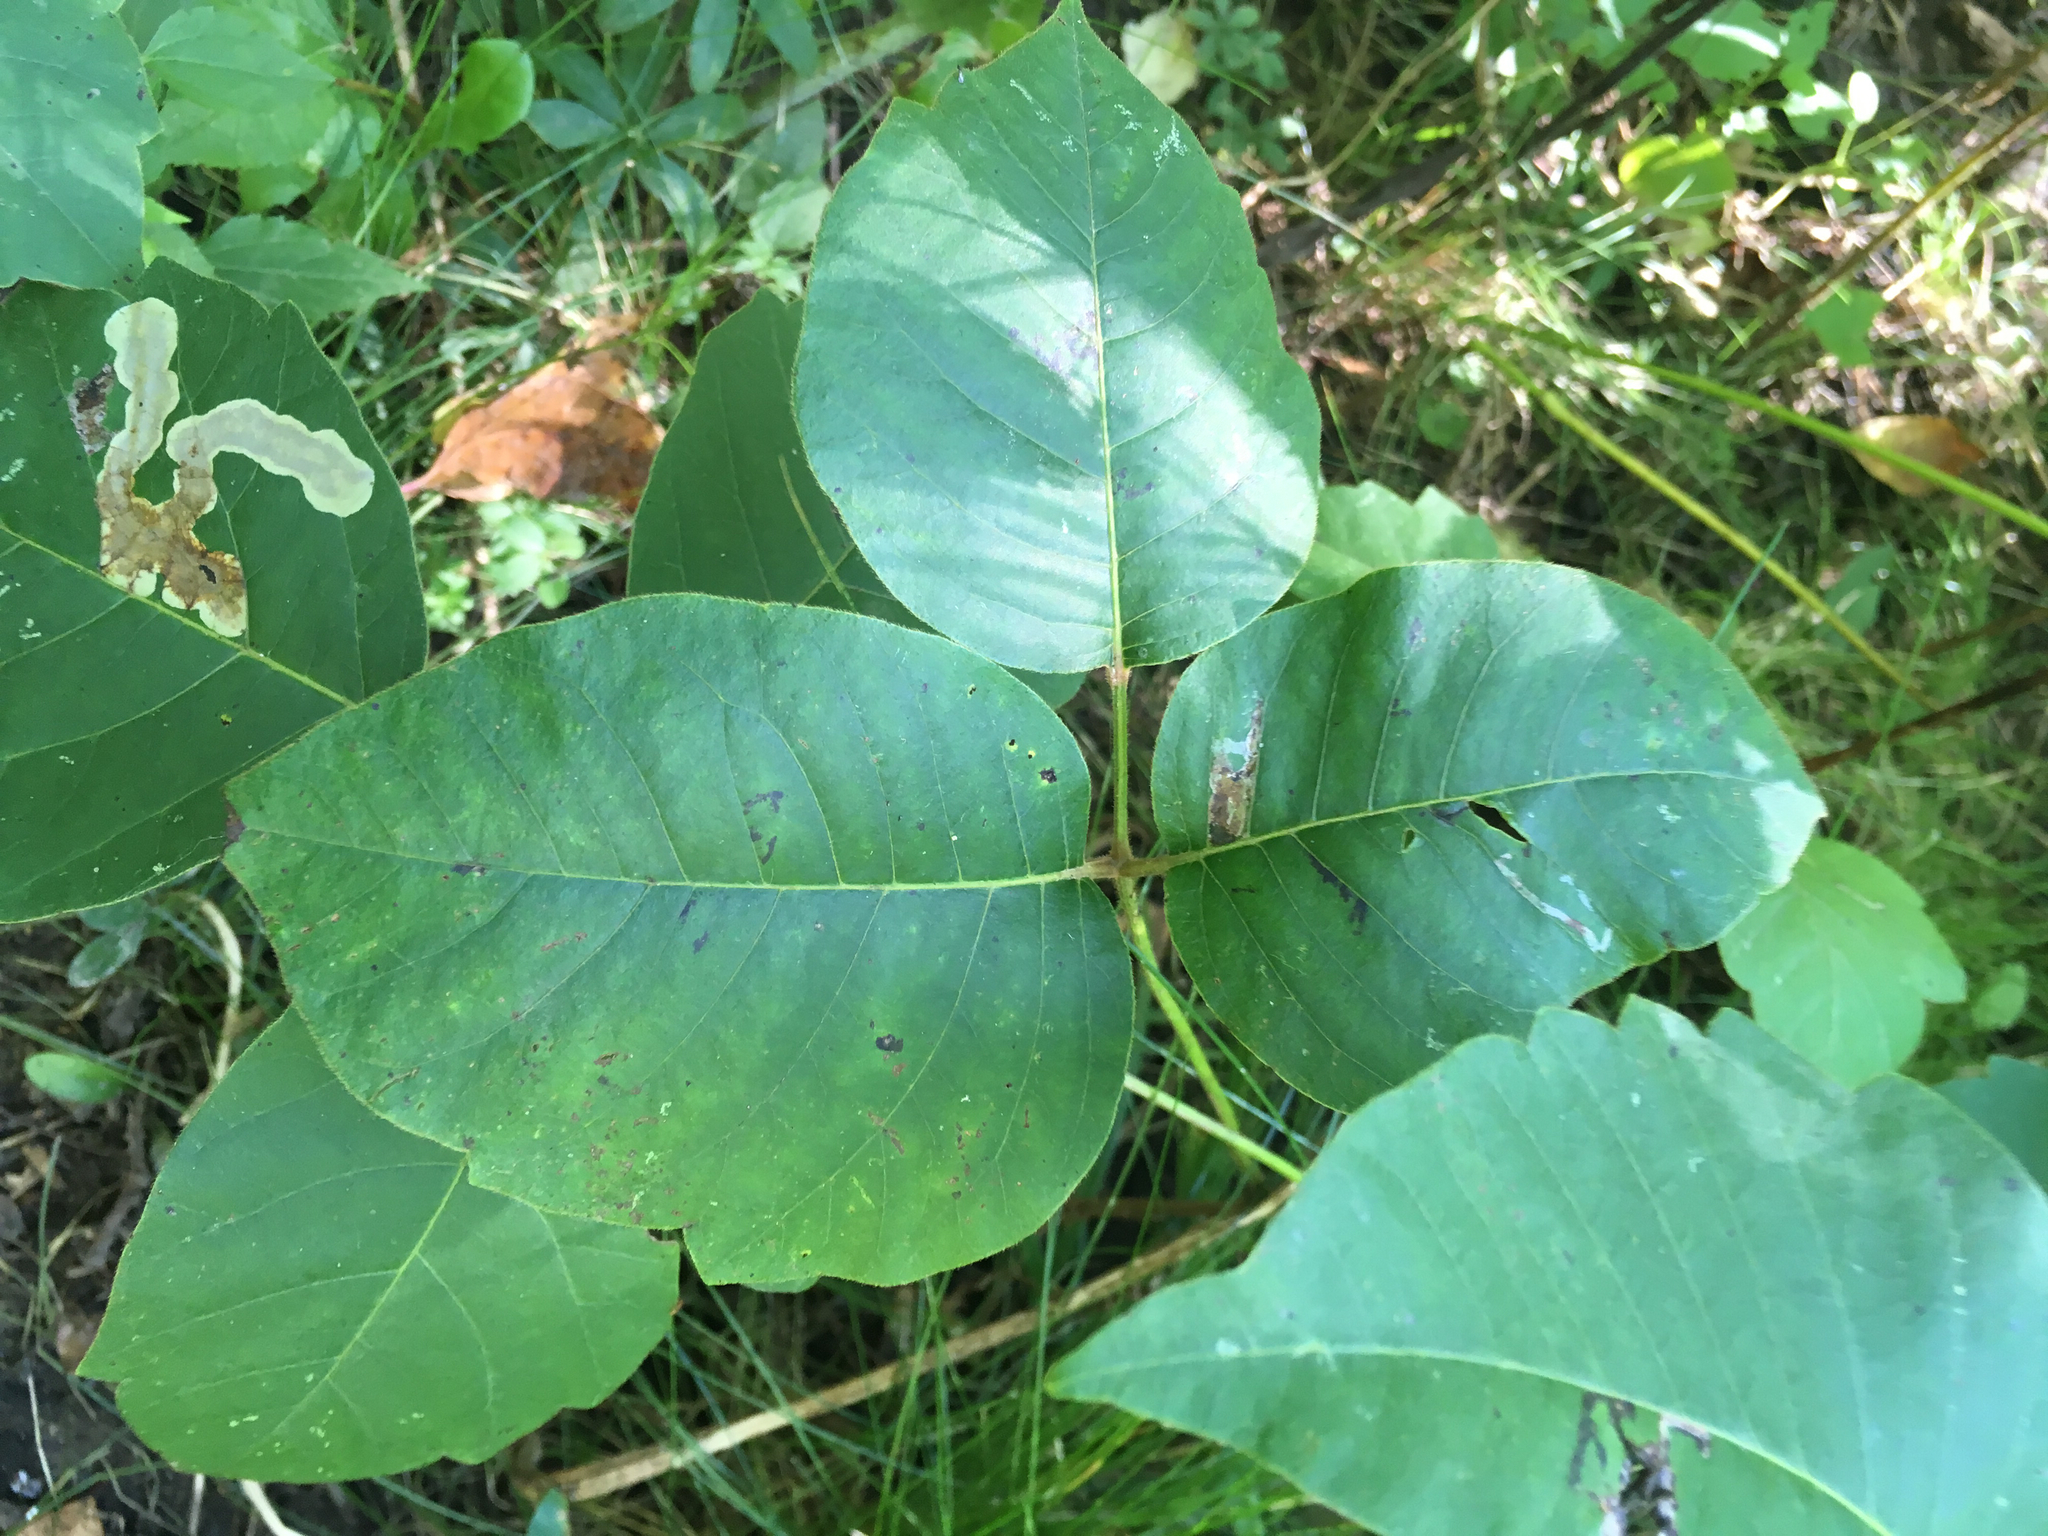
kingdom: Plantae
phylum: Tracheophyta
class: Magnoliopsida
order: Sapindales
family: Anacardiaceae
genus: Toxicodendron
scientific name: Toxicodendron rydbergii
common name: Rydberg's poison-ivy
